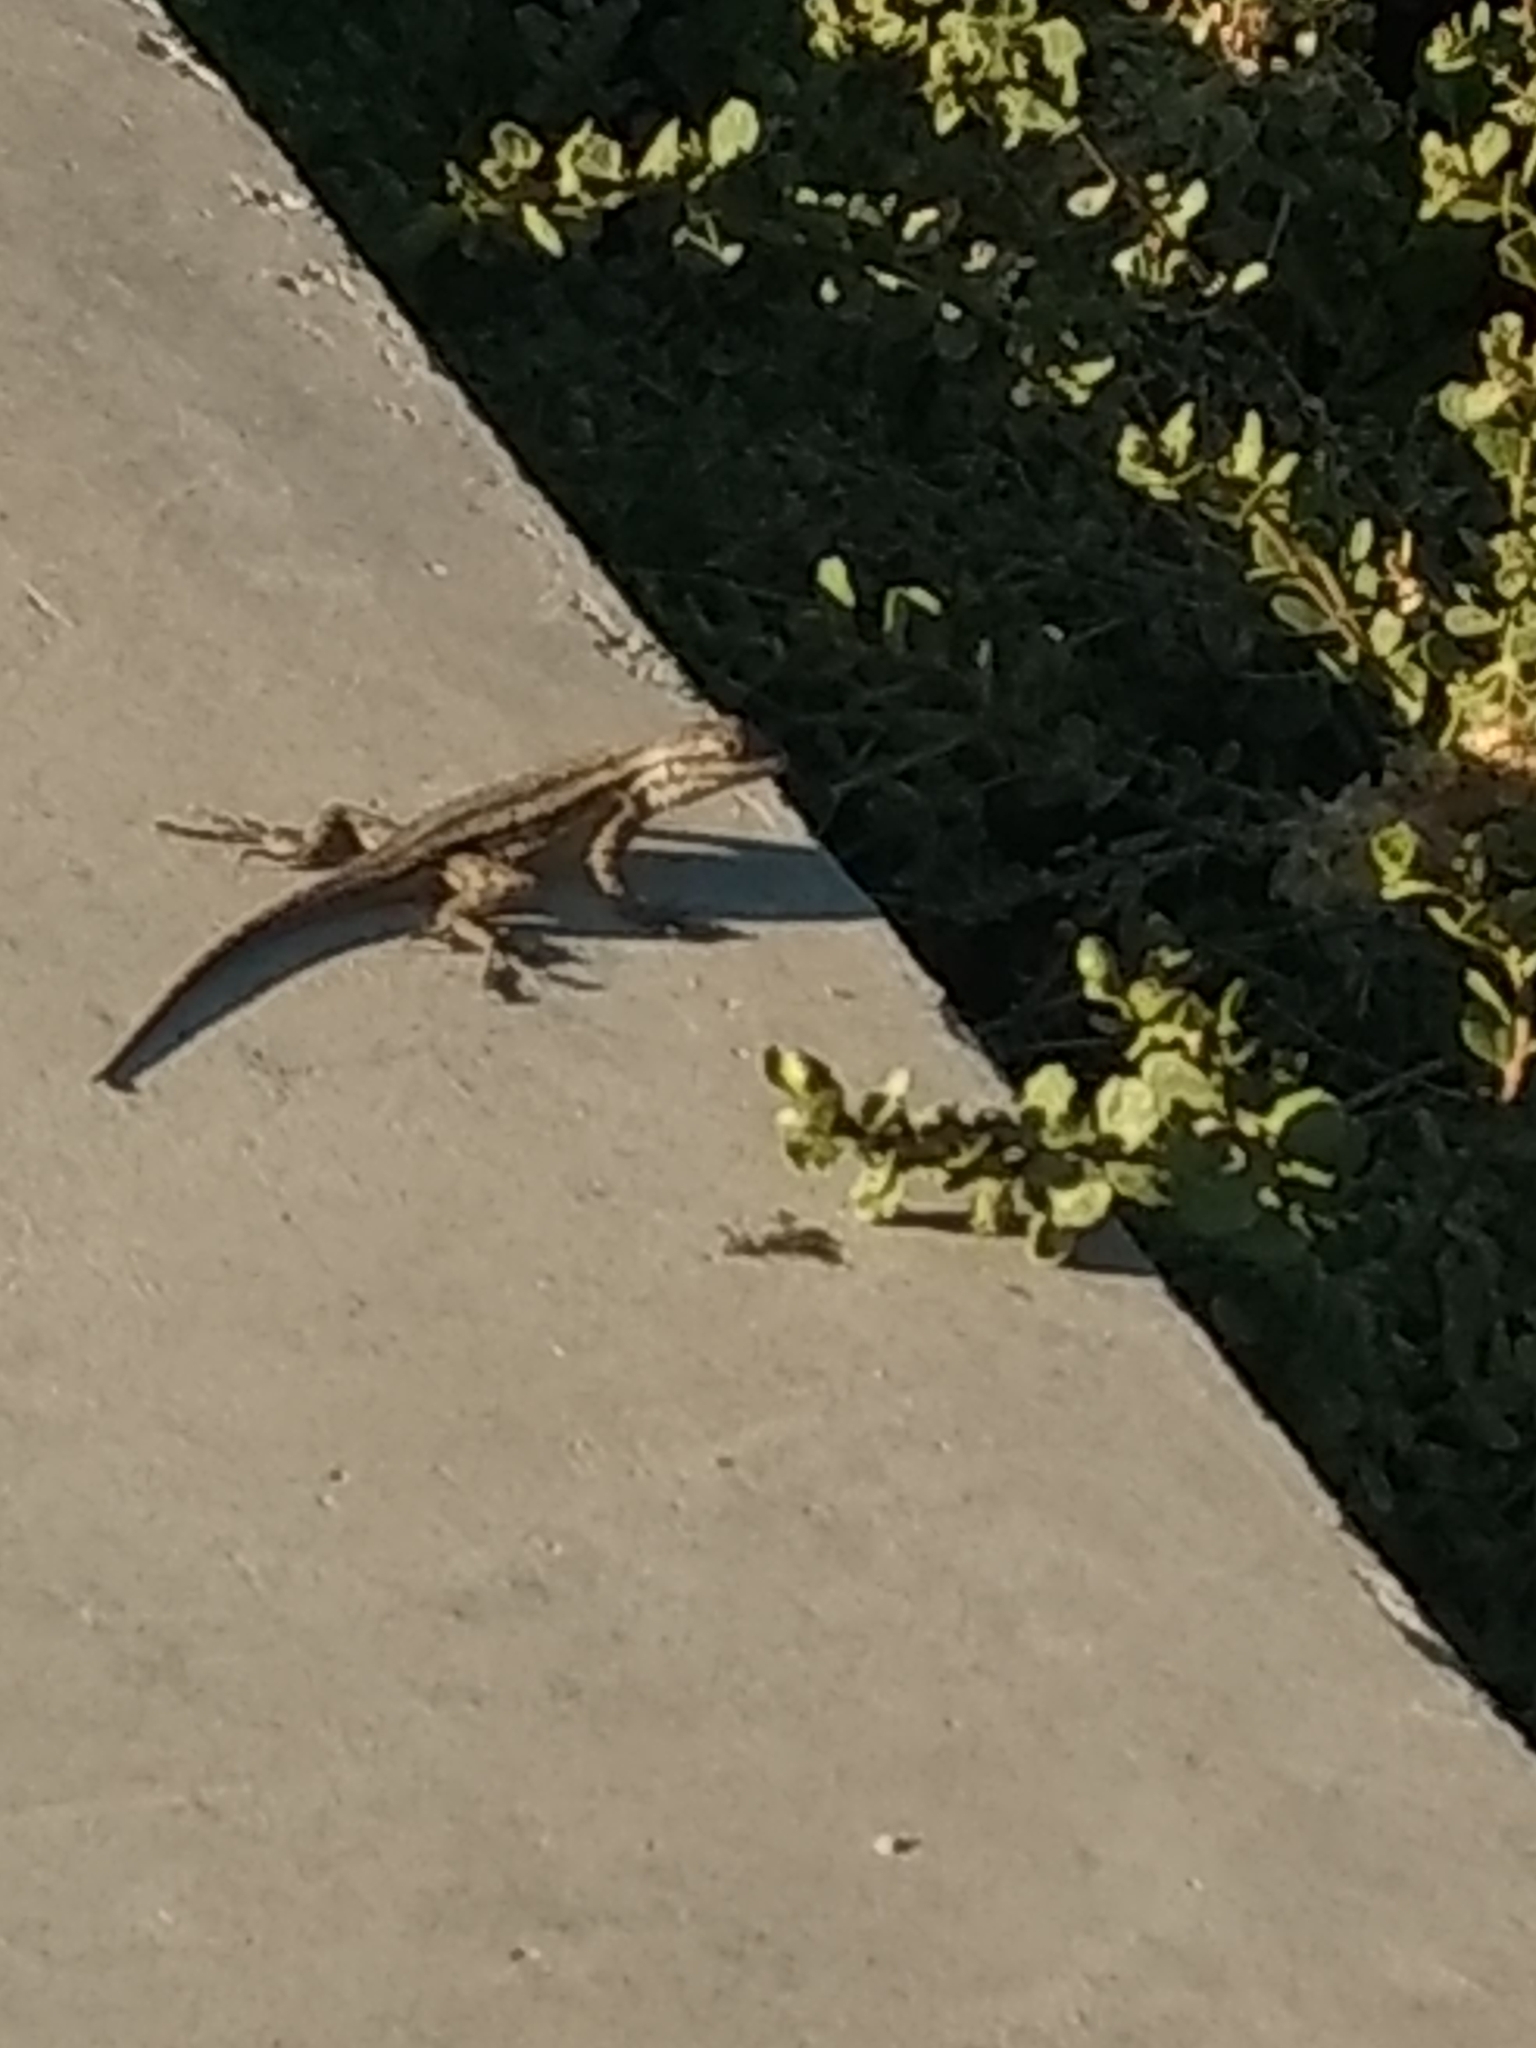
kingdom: Animalia
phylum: Chordata
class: Squamata
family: Phrynosomatidae
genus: Sceloporus
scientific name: Sceloporus occidentalis
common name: Western fence lizard
